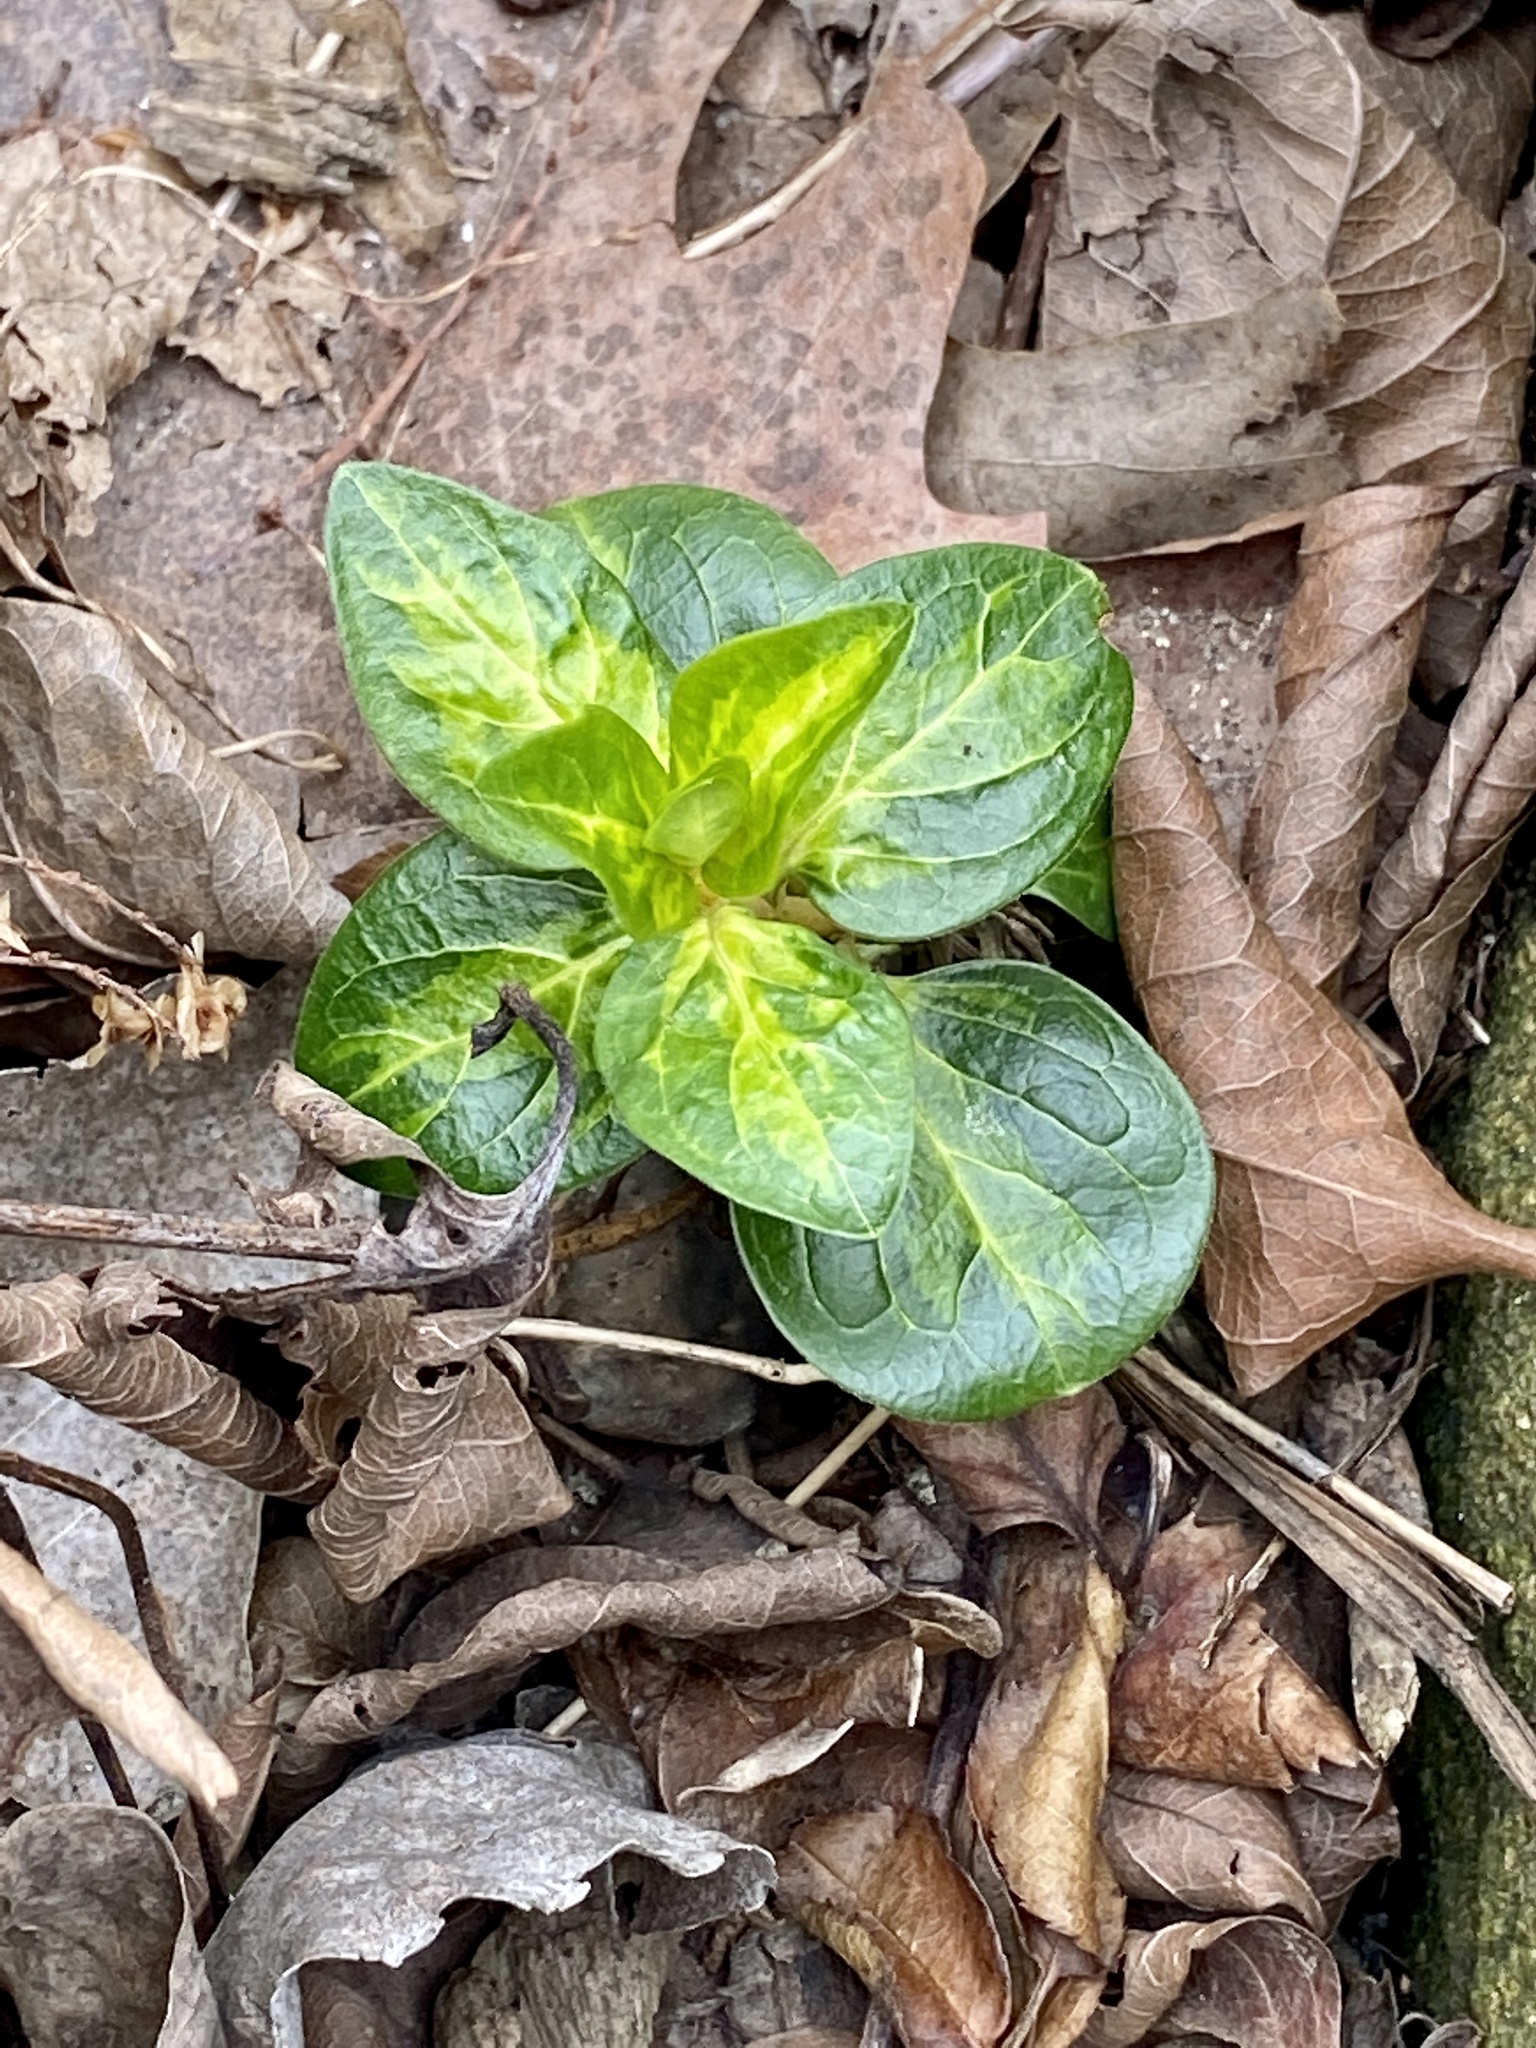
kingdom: Plantae
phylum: Tracheophyta
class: Magnoliopsida
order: Gentianales
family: Apocynaceae
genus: Vinca
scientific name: Vinca major
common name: Greater periwinkle
